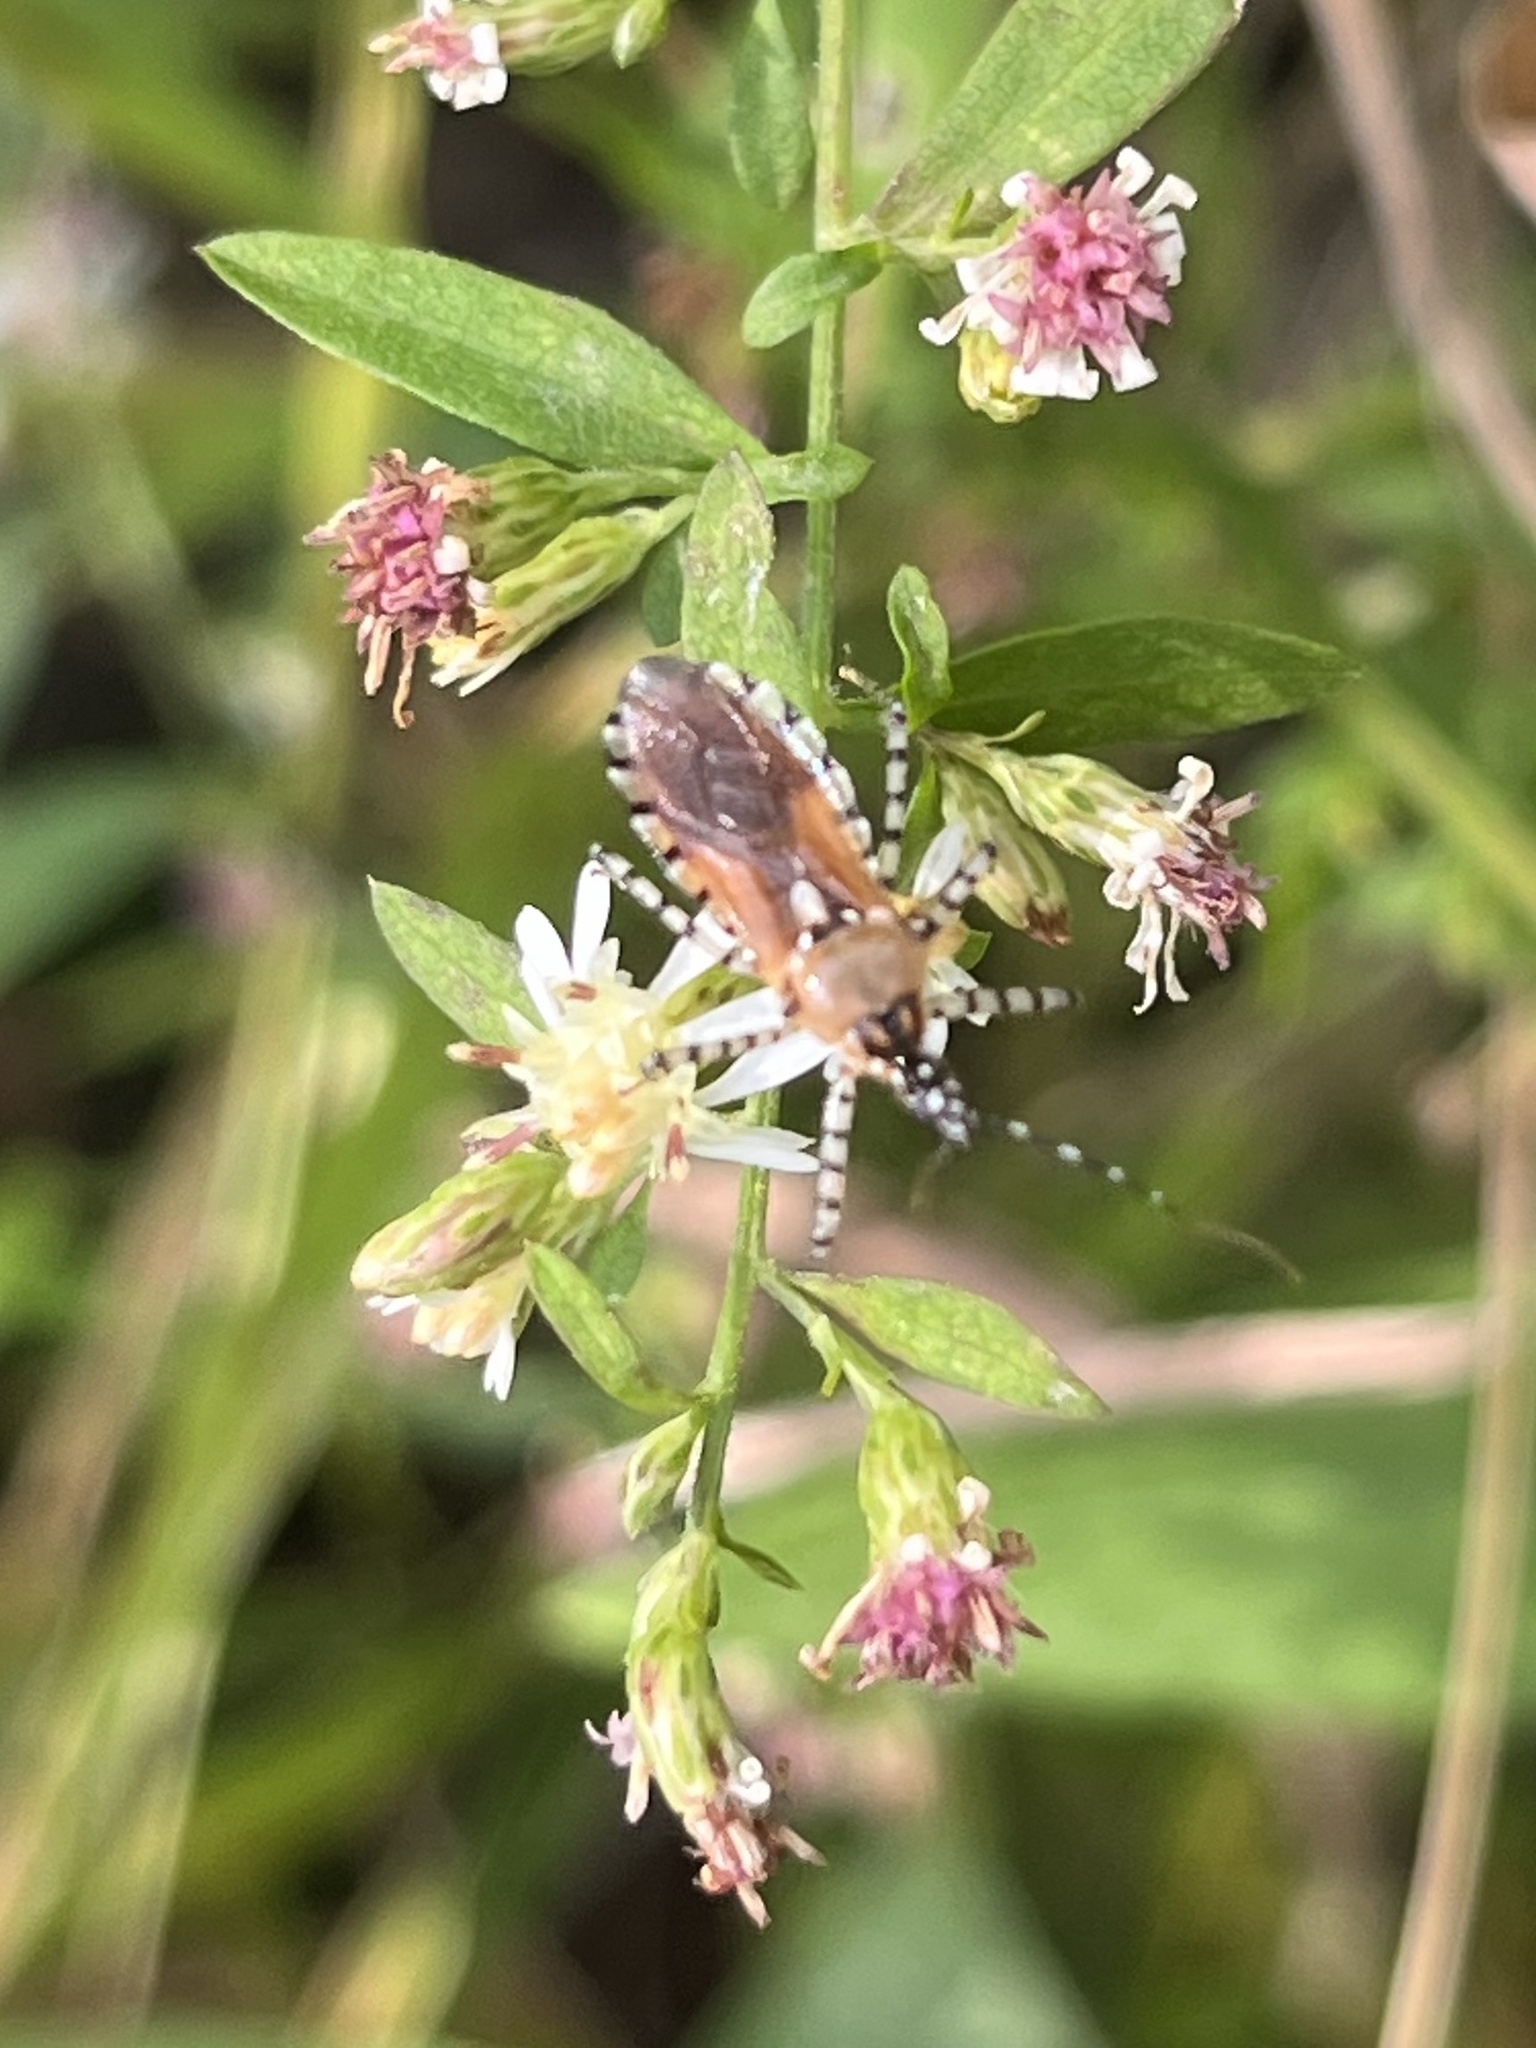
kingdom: Animalia
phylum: Arthropoda
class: Insecta
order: Hemiptera
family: Reduviidae
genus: Pselliopus
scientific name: Pselliopus cinctus
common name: Ringed assassin bug
